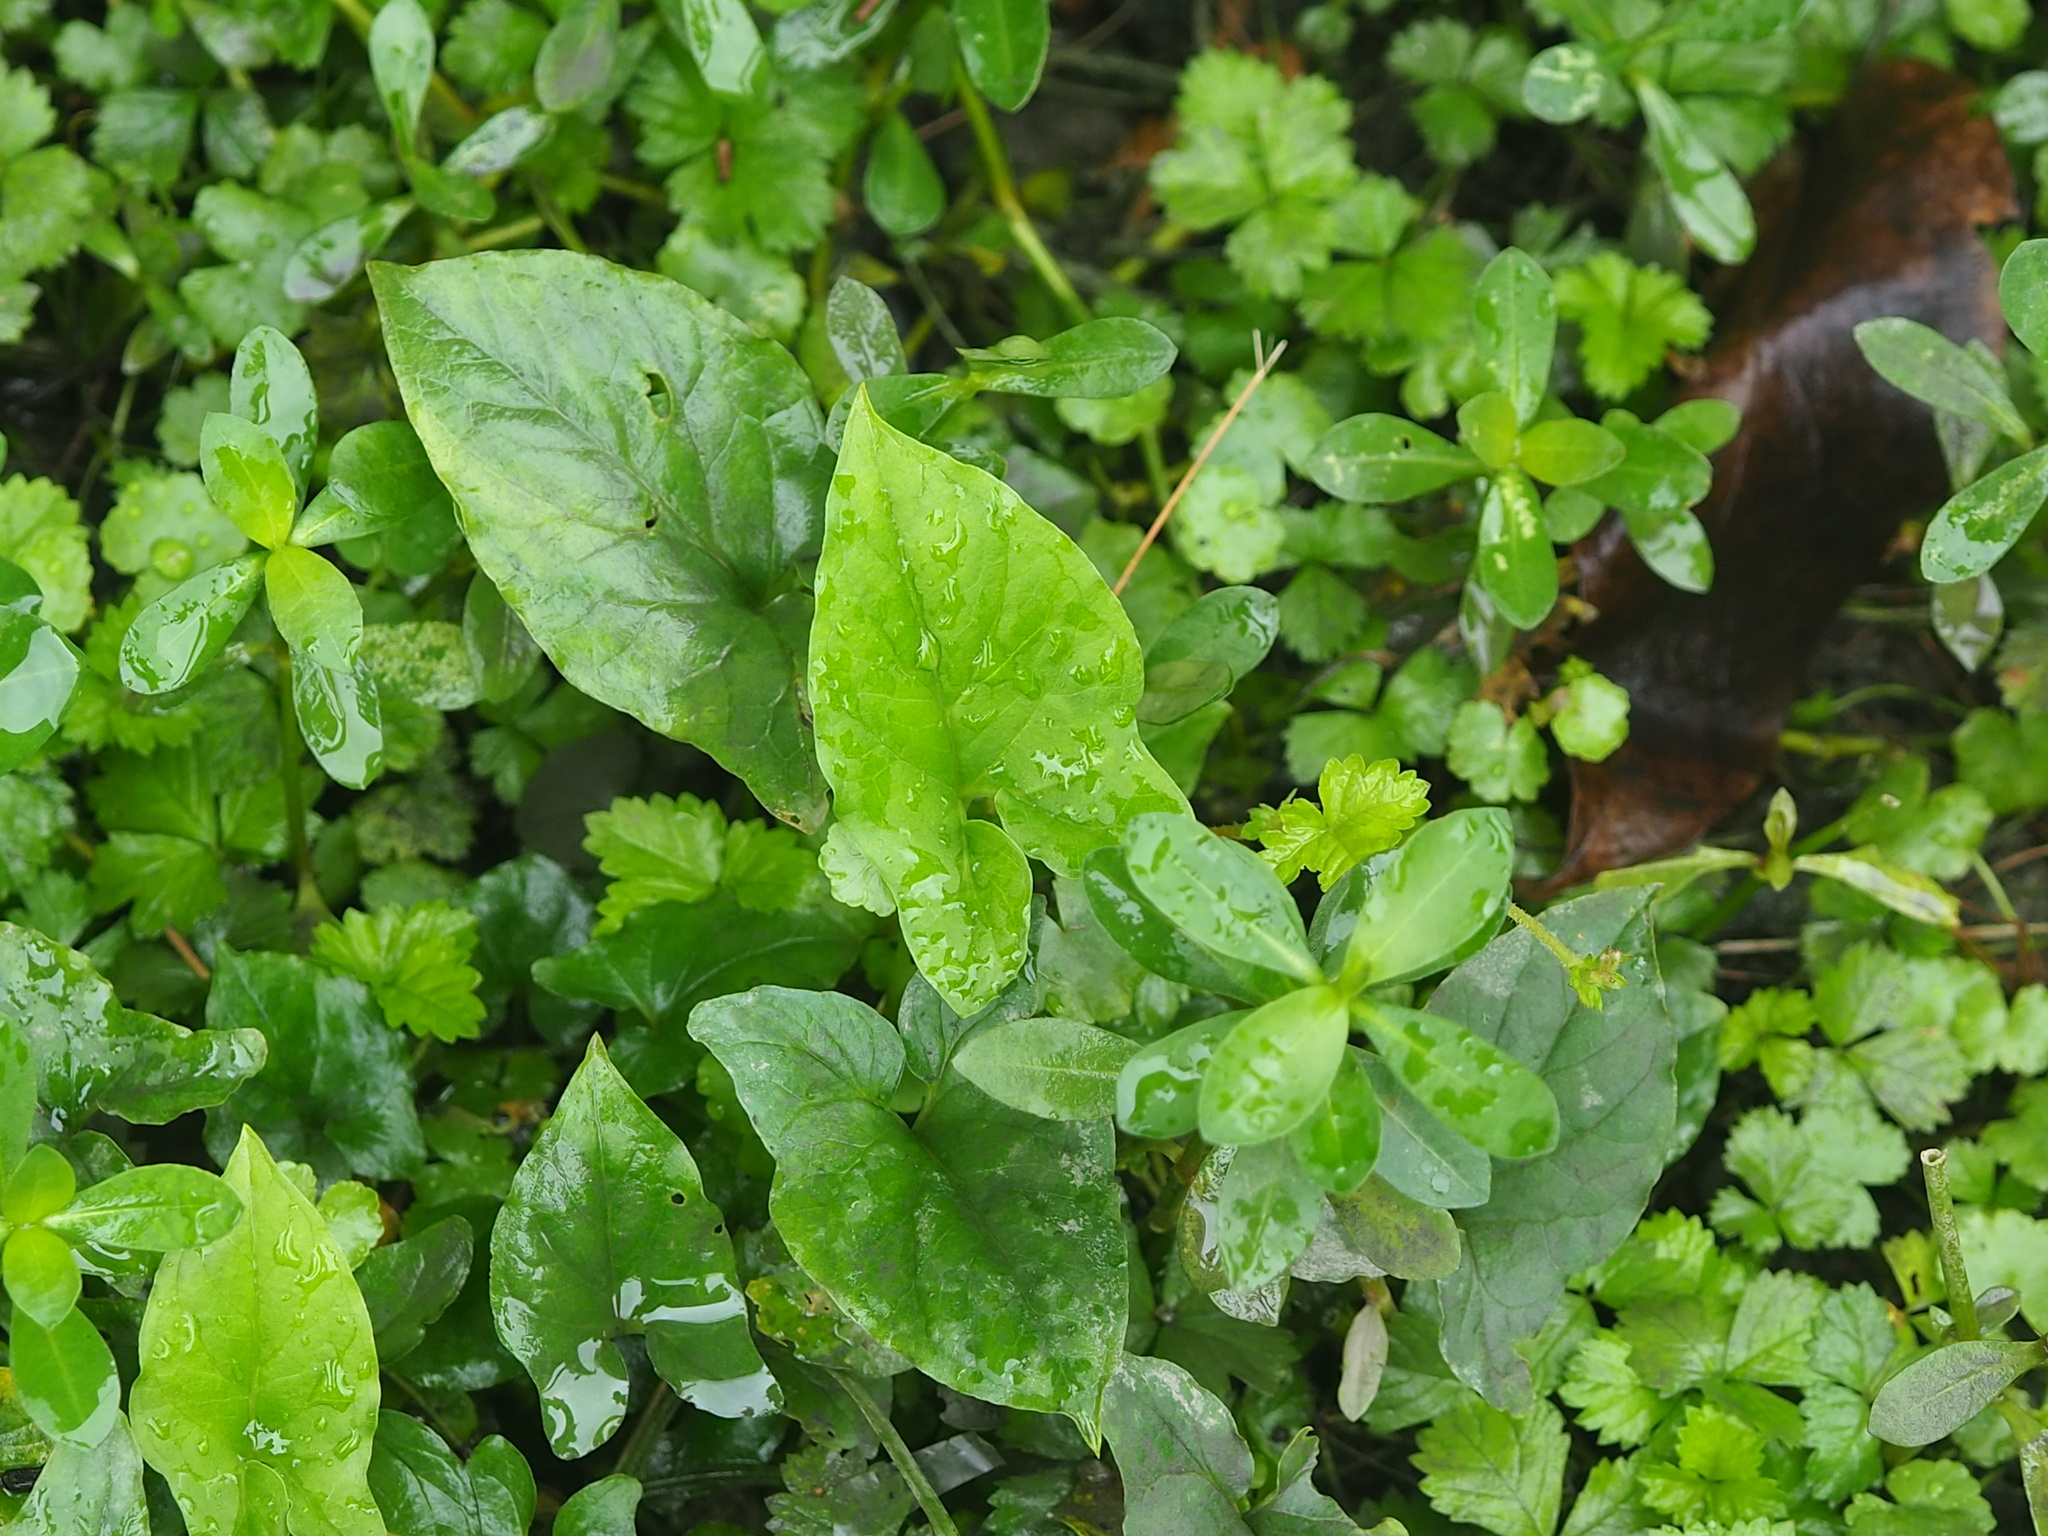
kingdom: Plantae
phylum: Tracheophyta
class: Liliopsida
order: Alismatales
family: Araceae
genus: Typhonium
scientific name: Typhonium blumei
